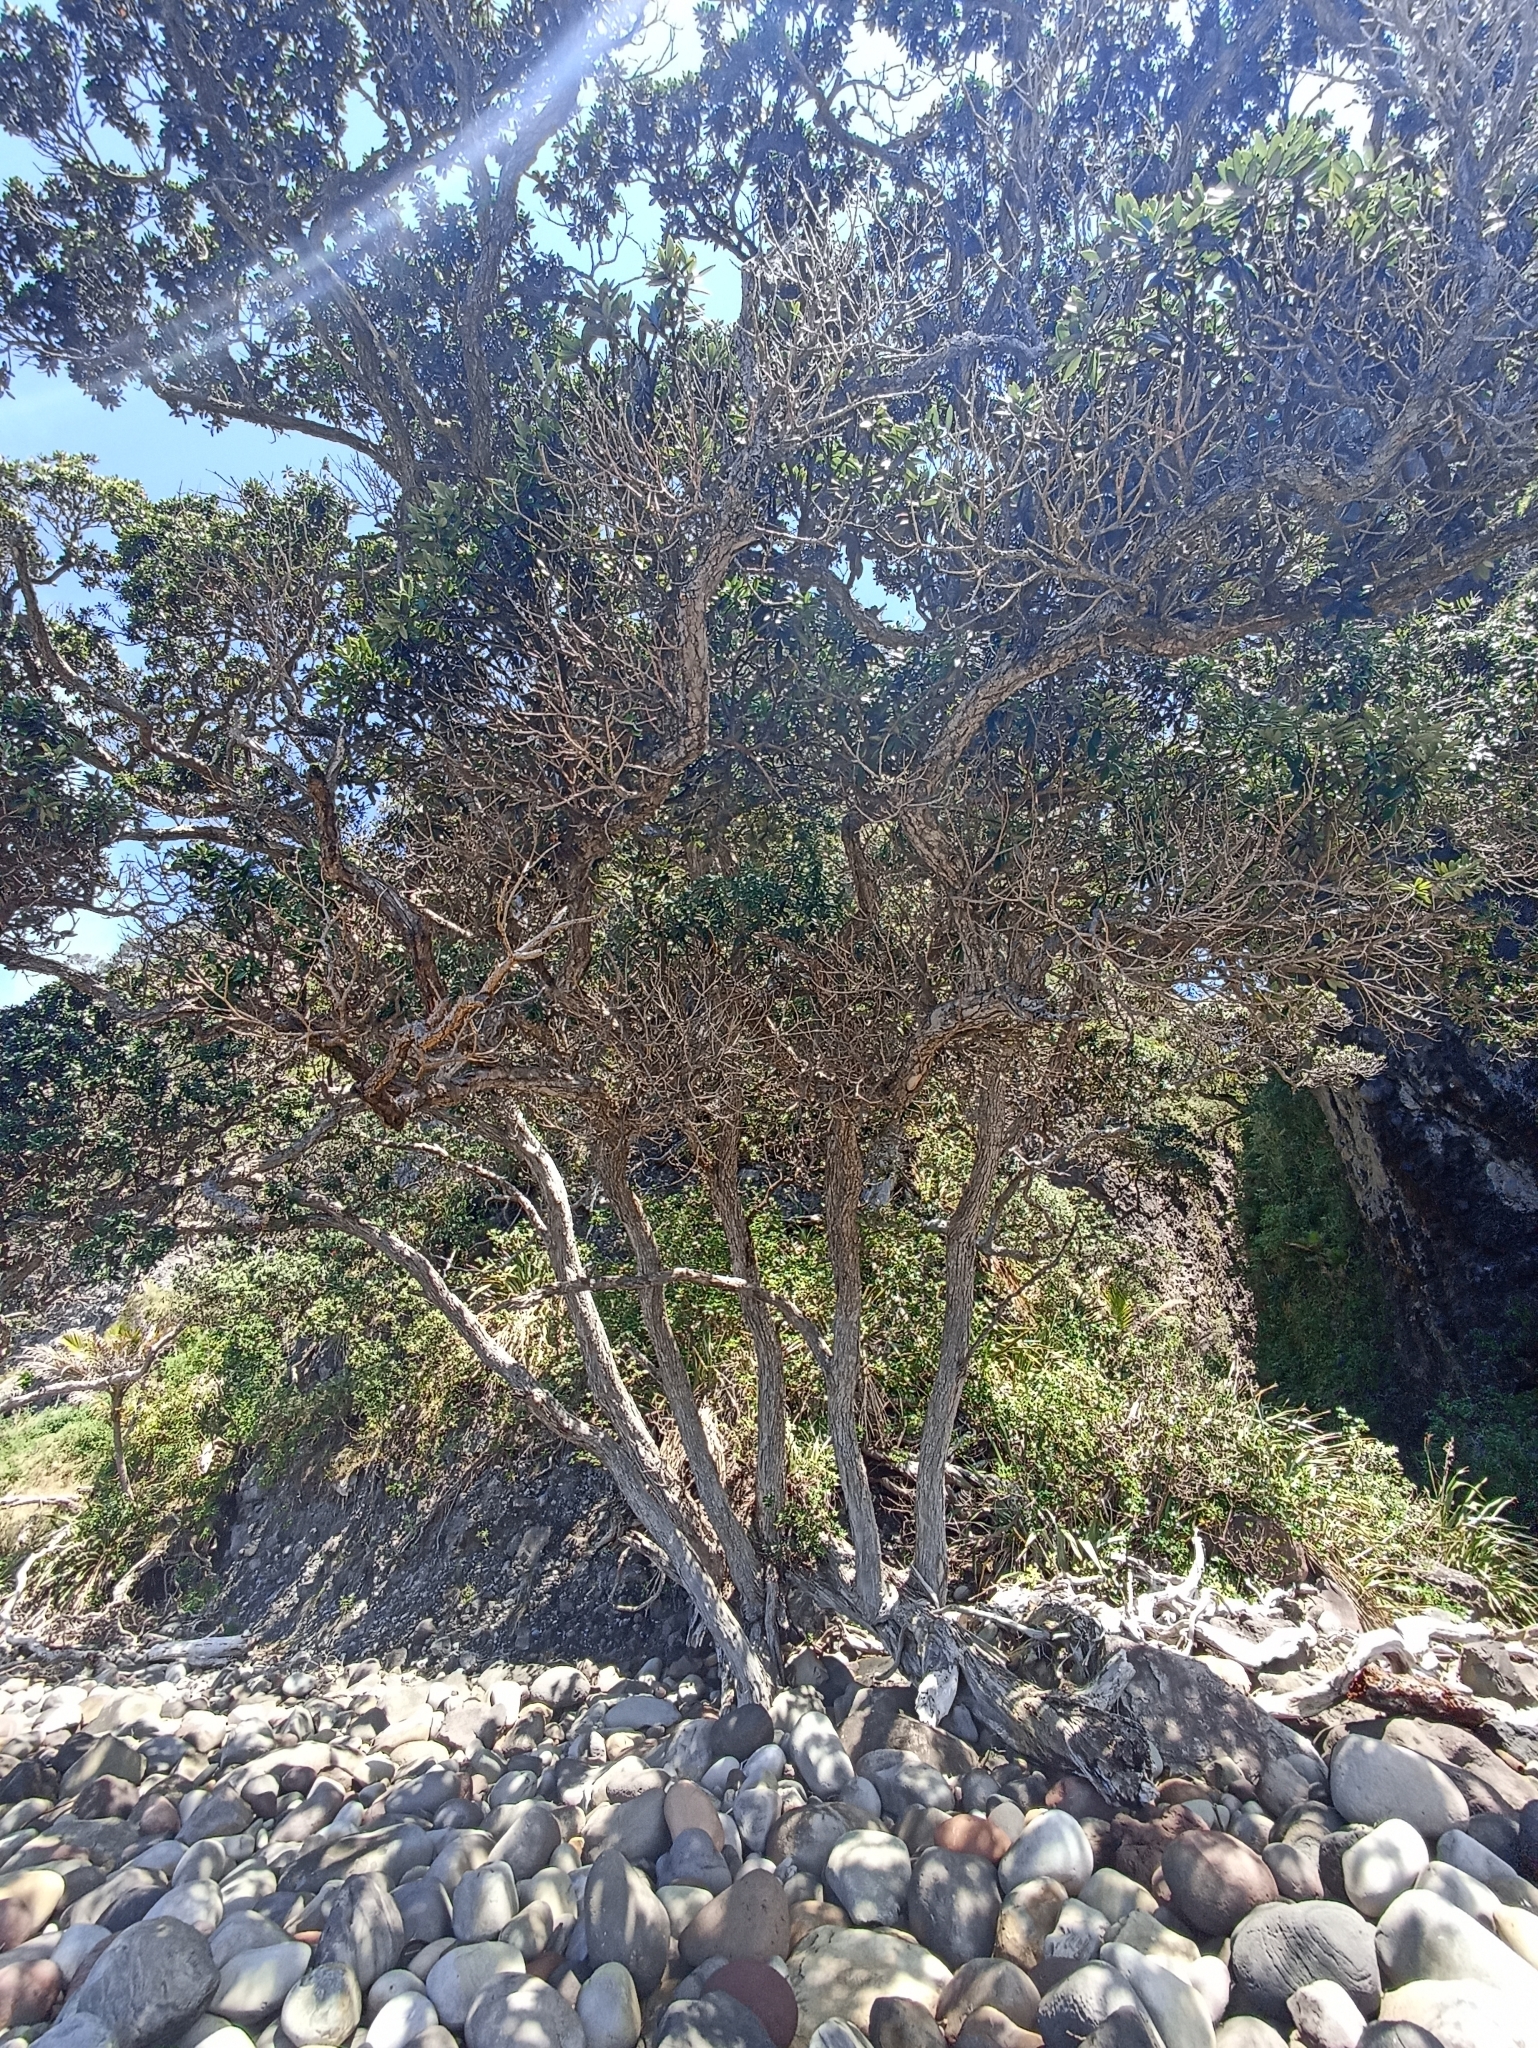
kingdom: Plantae
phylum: Tracheophyta
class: Magnoliopsida
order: Myrtales
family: Myrtaceae
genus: Metrosideros
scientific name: Metrosideros excelsa
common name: New zealand christmastree
